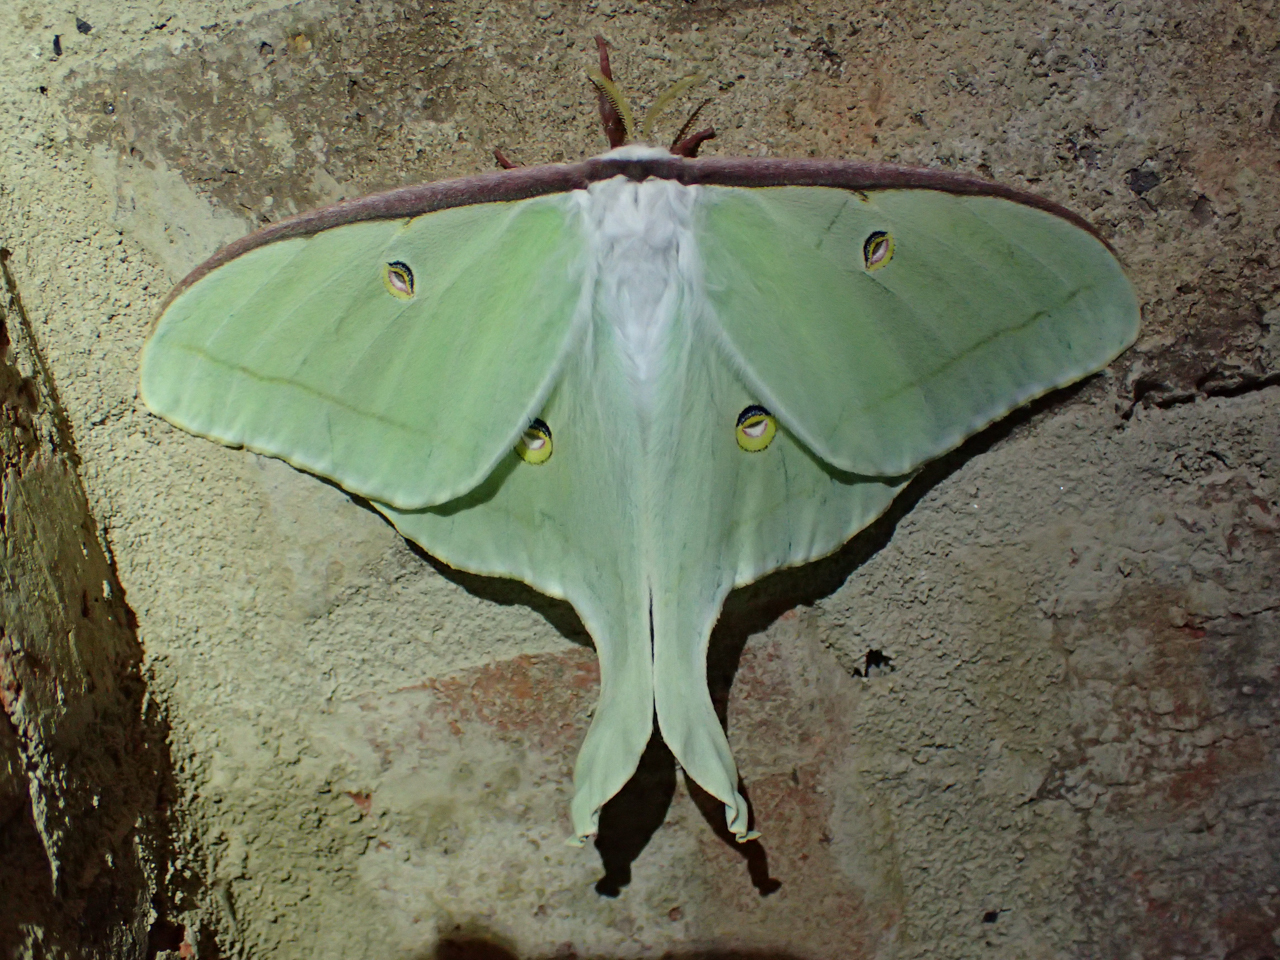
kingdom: Animalia
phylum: Arthropoda
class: Insecta
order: Lepidoptera
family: Saturniidae
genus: Actias
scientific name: Actias luna
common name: Luna moth
